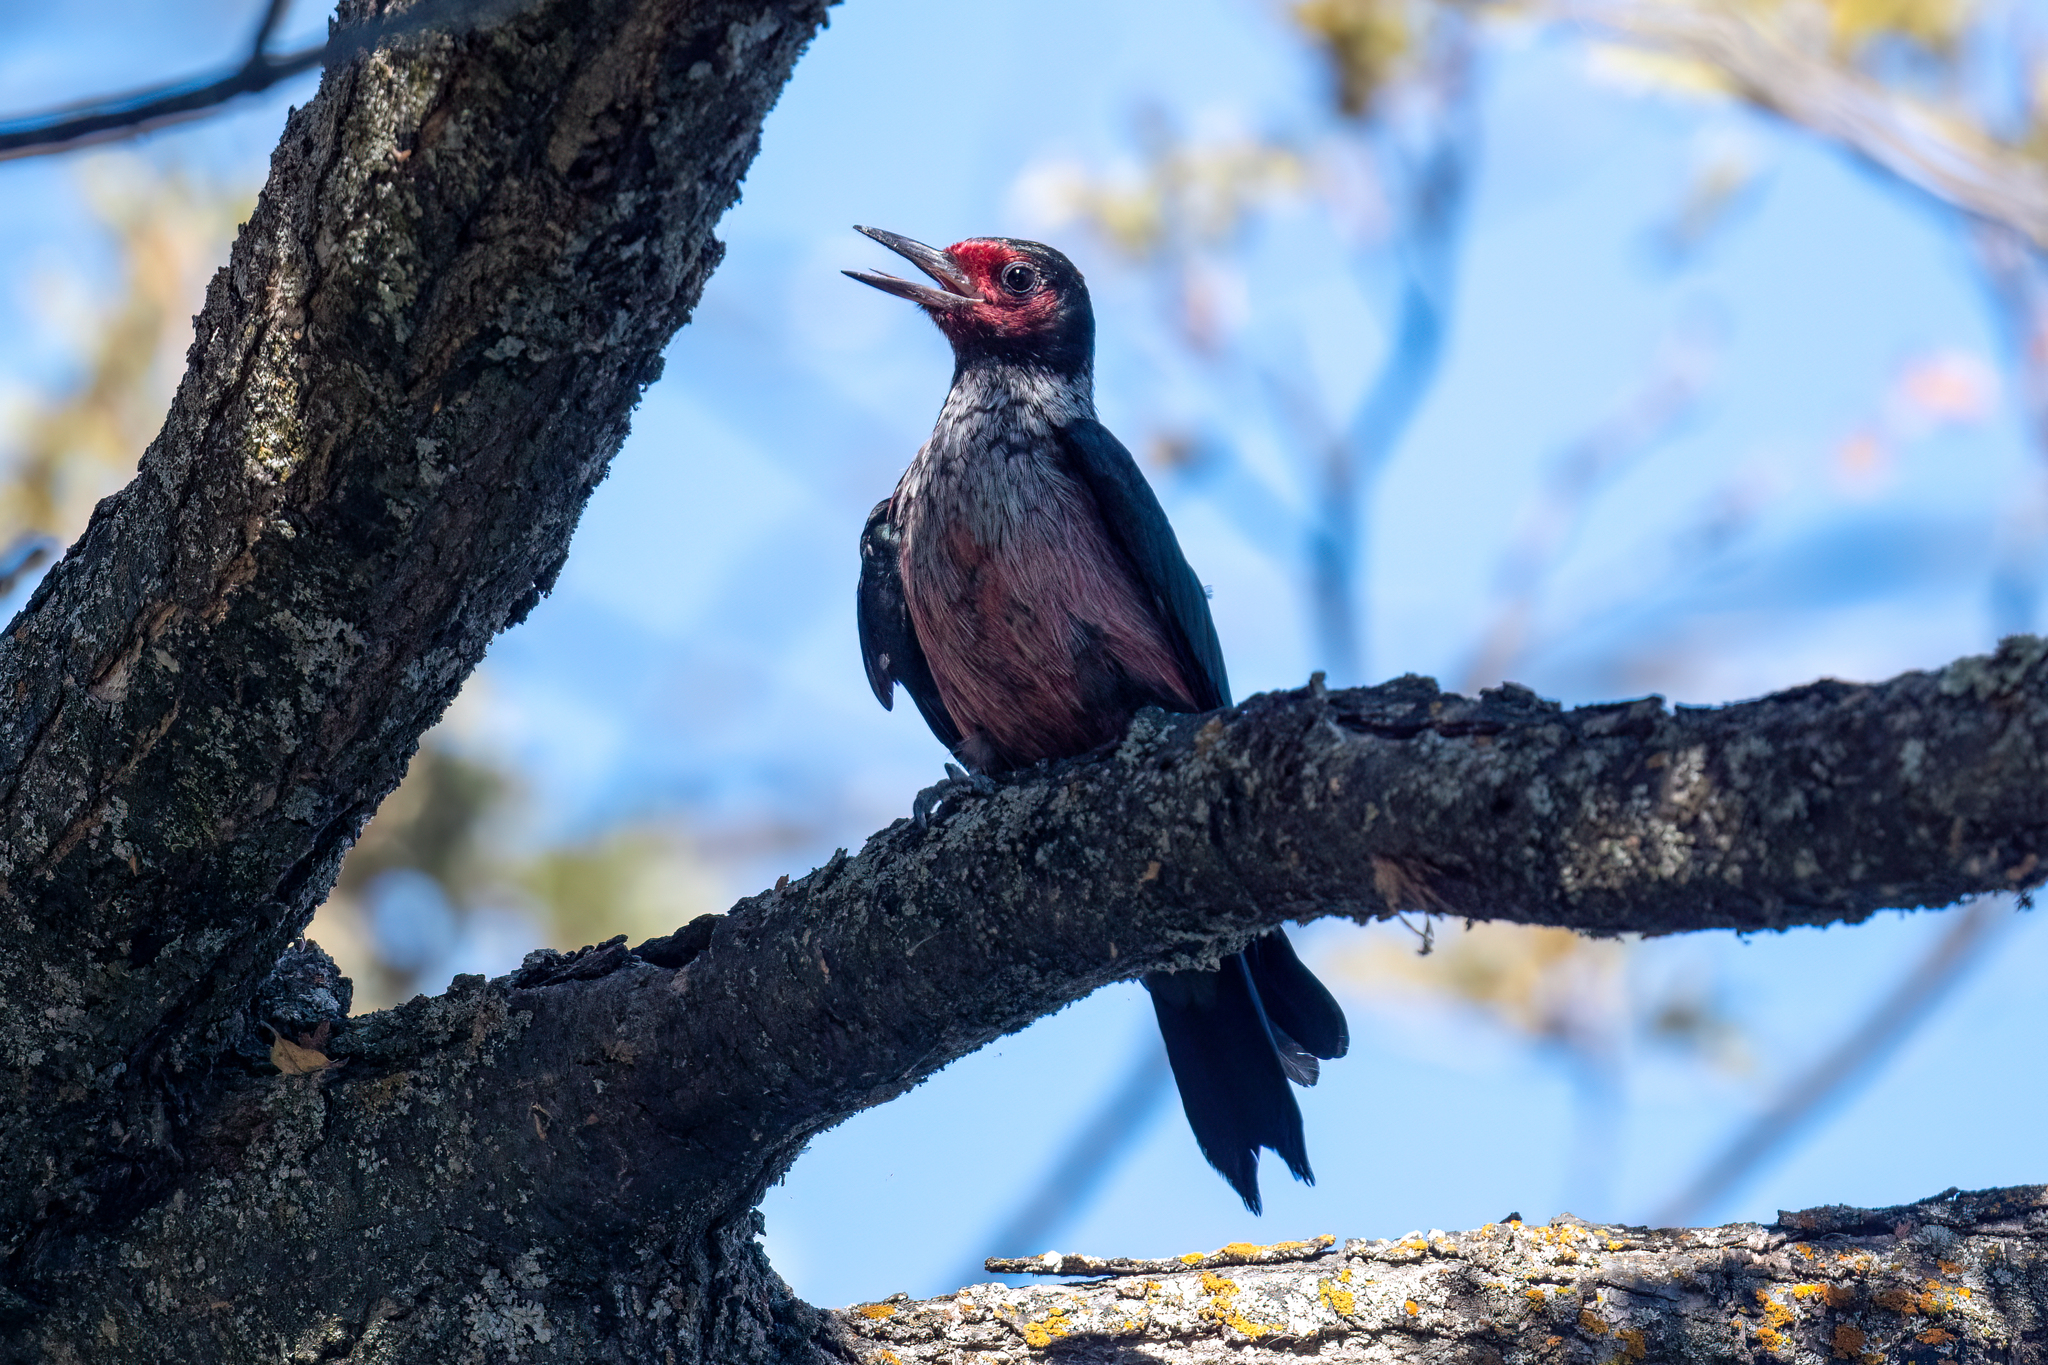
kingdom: Animalia
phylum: Chordata
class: Aves
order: Piciformes
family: Picidae
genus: Melanerpes
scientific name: Melanerpes lewis
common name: Lewis's woodpecker
